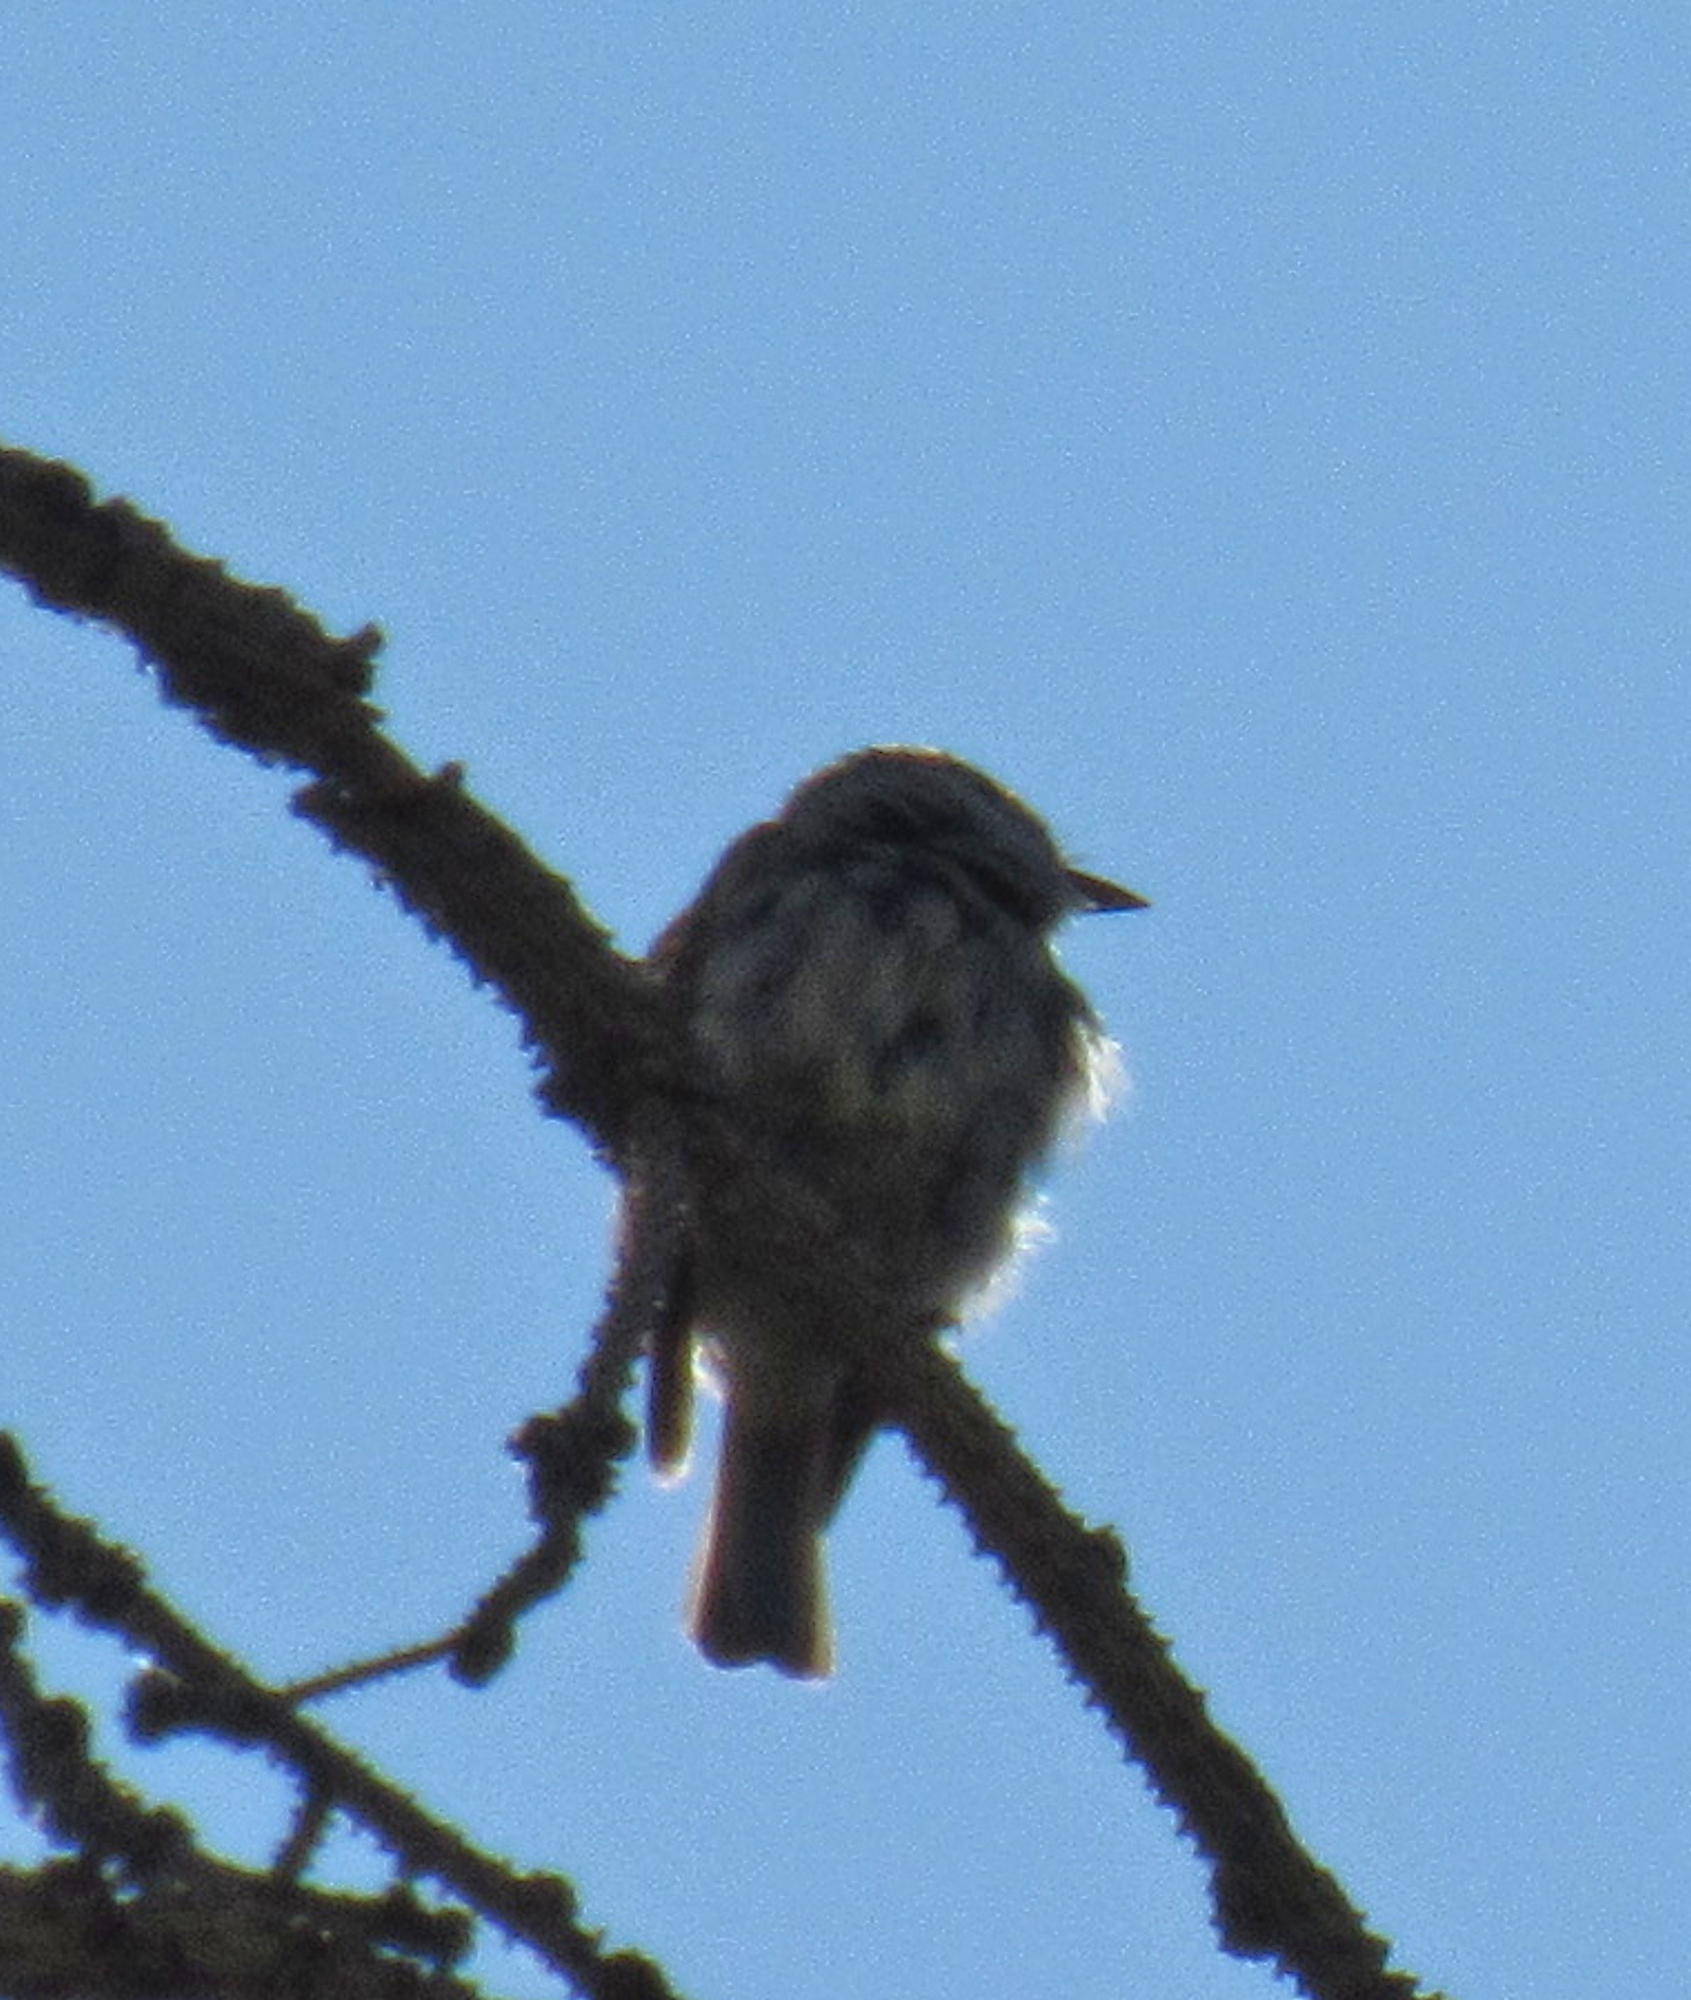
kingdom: Animalia
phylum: Chordata
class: Aves
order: Passeriformes
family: Tyrannidae
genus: Empidonax
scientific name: Empidonax hammondii
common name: Hammond's flycatcher
